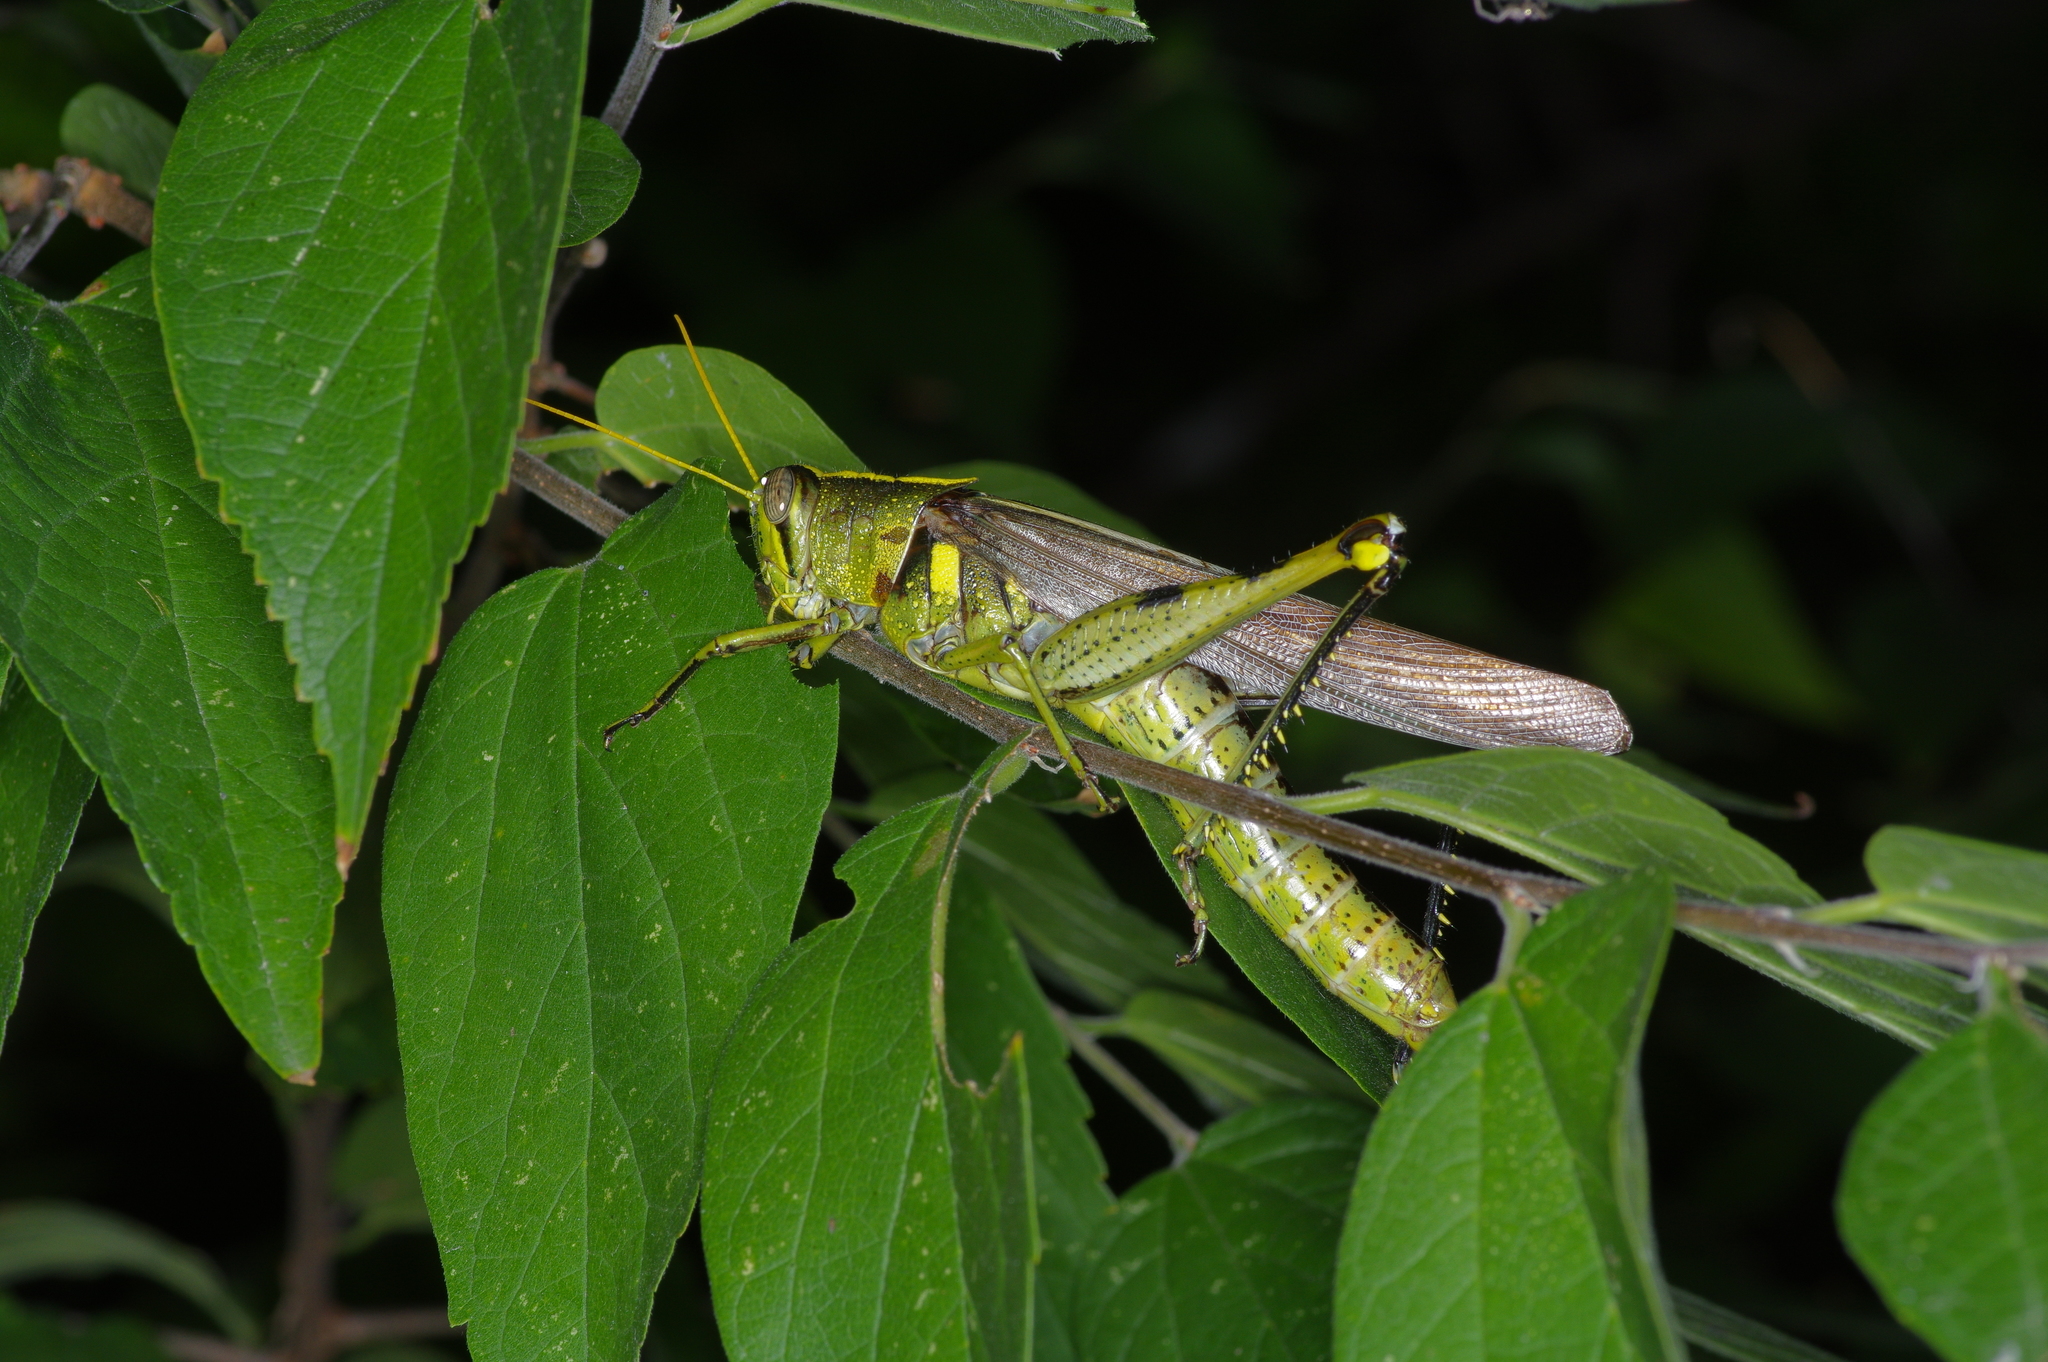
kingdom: Animalia
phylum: Arthropoda
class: Insecta
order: Orthoptera
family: Acrididae
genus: Schistocerca
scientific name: Schistocerca obscura
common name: Obscure bird grasshopper
